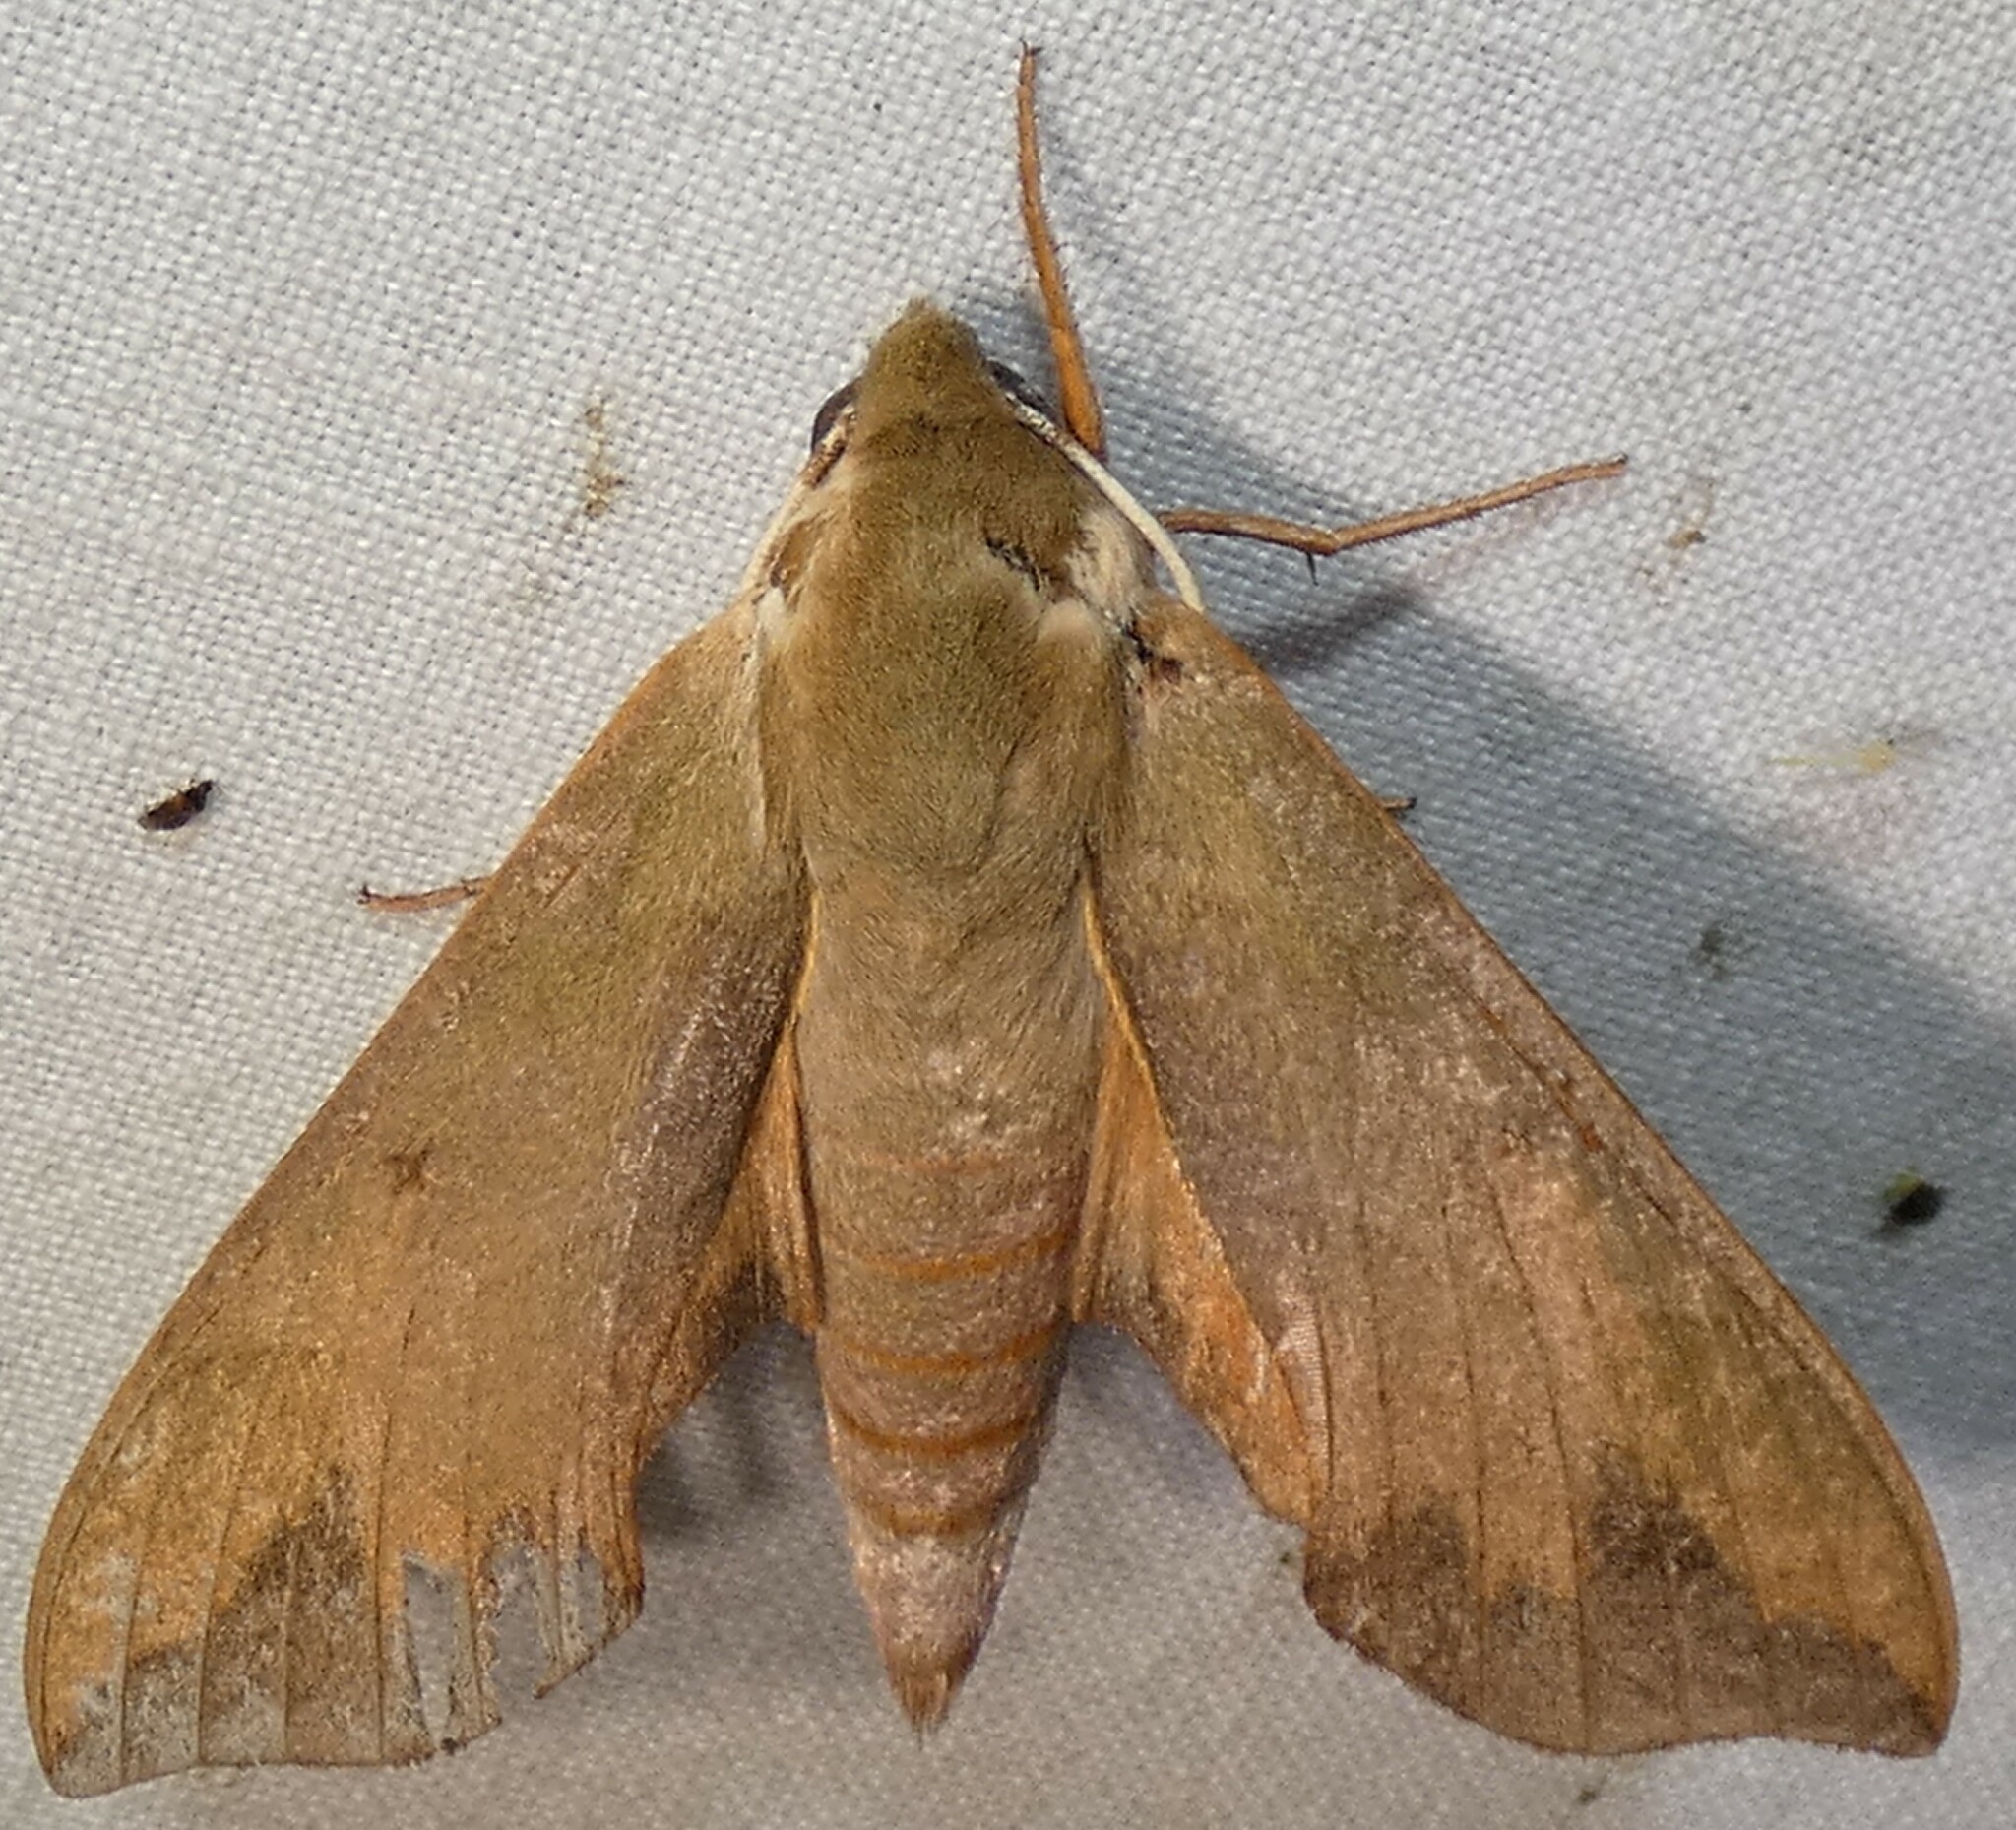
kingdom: Animalia
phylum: Arthropoda
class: Insecta
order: Lepidoptera
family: Sphingidae
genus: Darapsa
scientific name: Darapsa myron
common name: Hog sphinx
